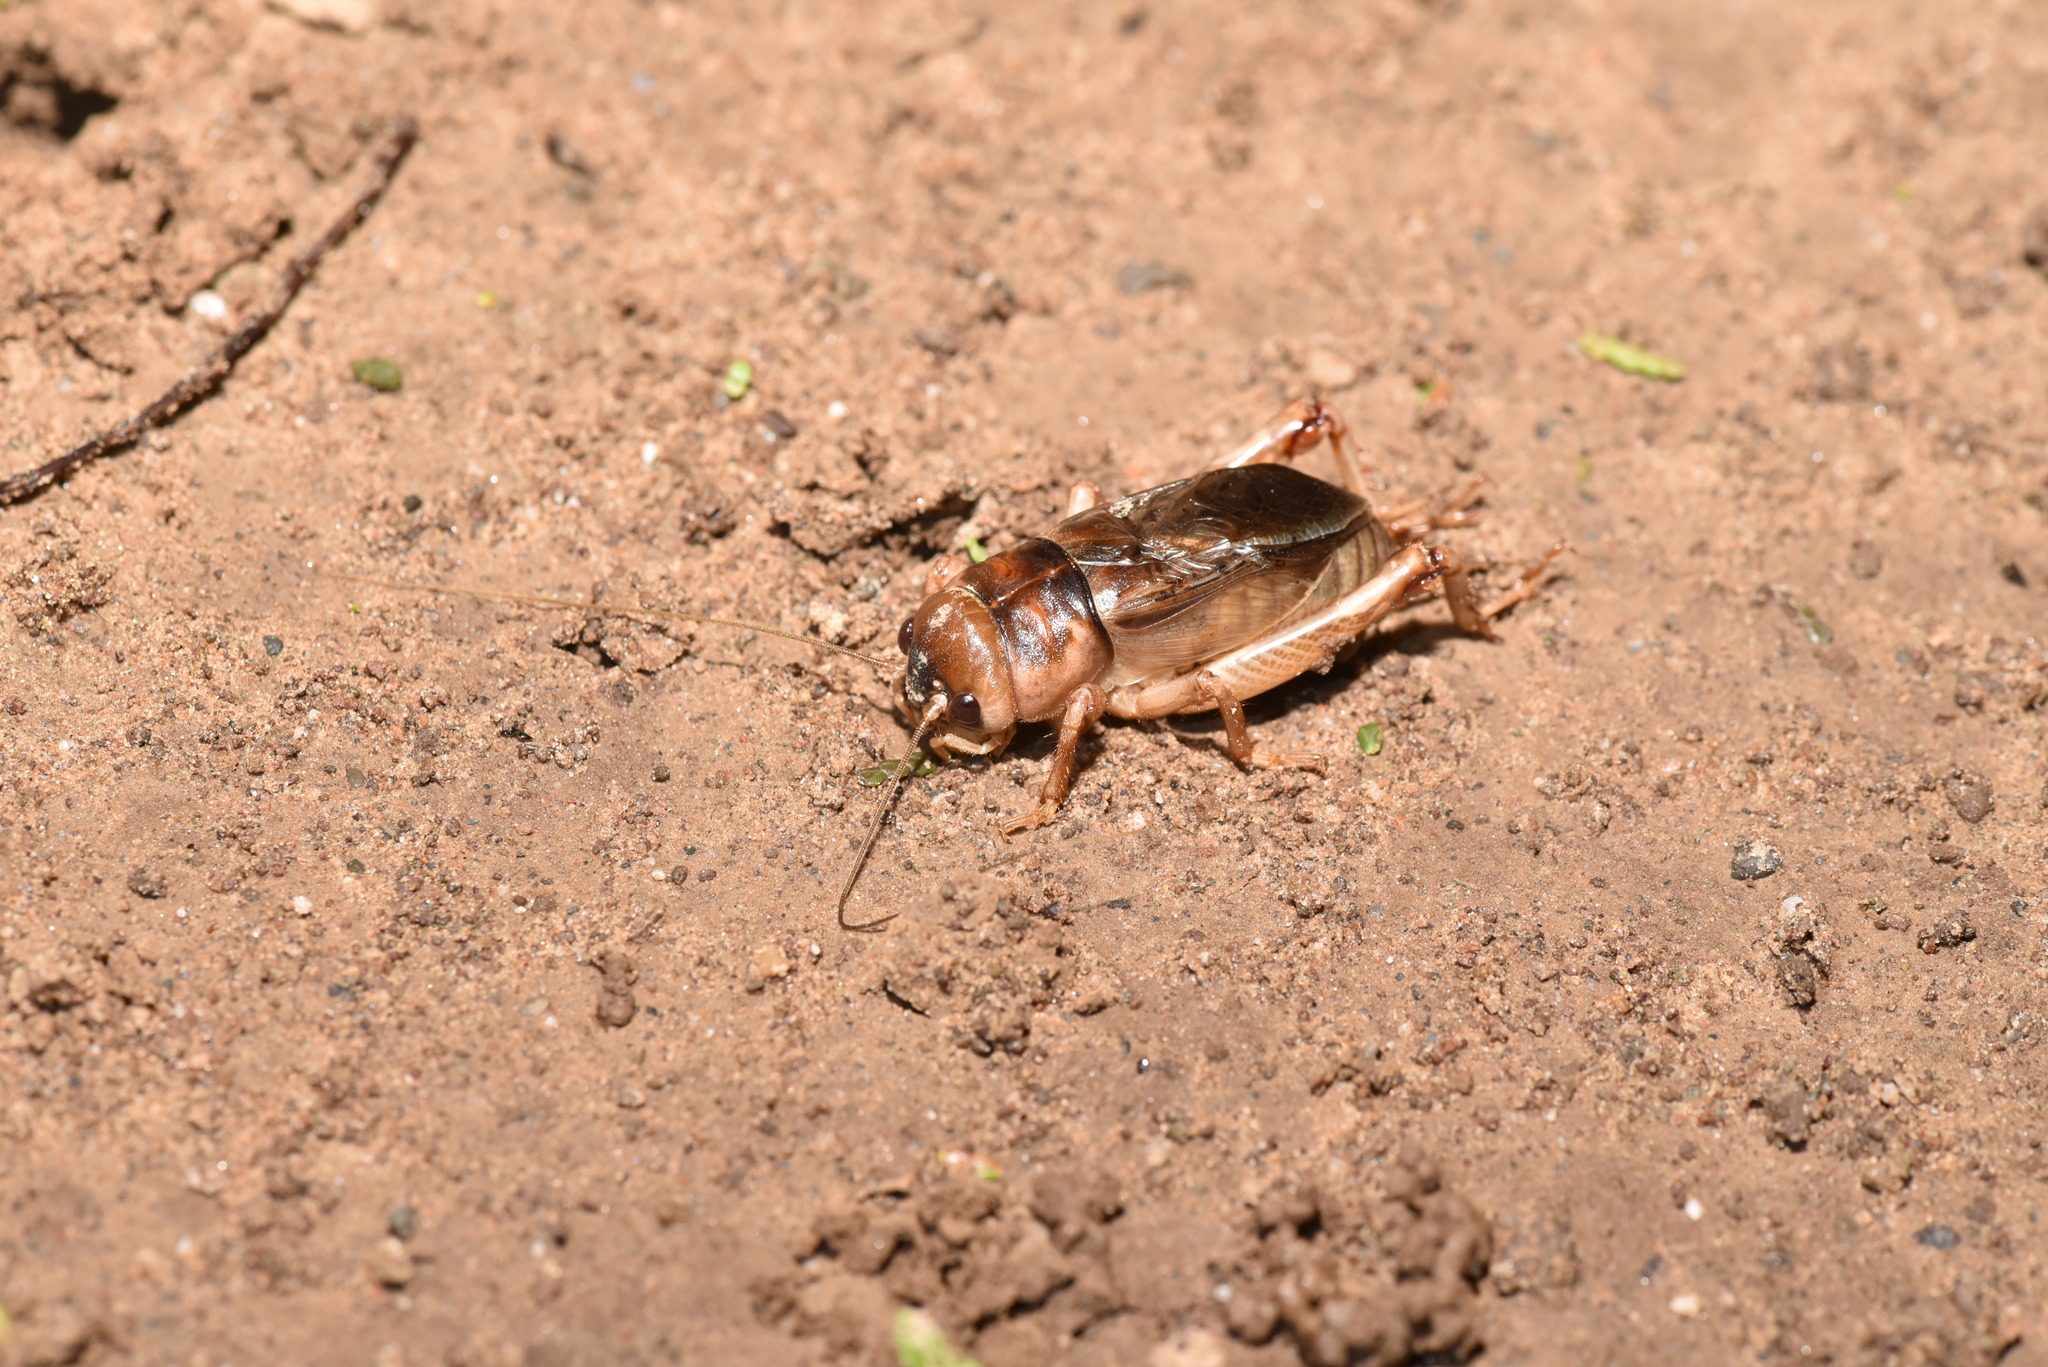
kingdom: Animalia
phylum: Arthropoda
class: Insecta
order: Orthoptera
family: Gryllidae
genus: Tarbinskiellus
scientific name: Tarbinskiellus portentosus
